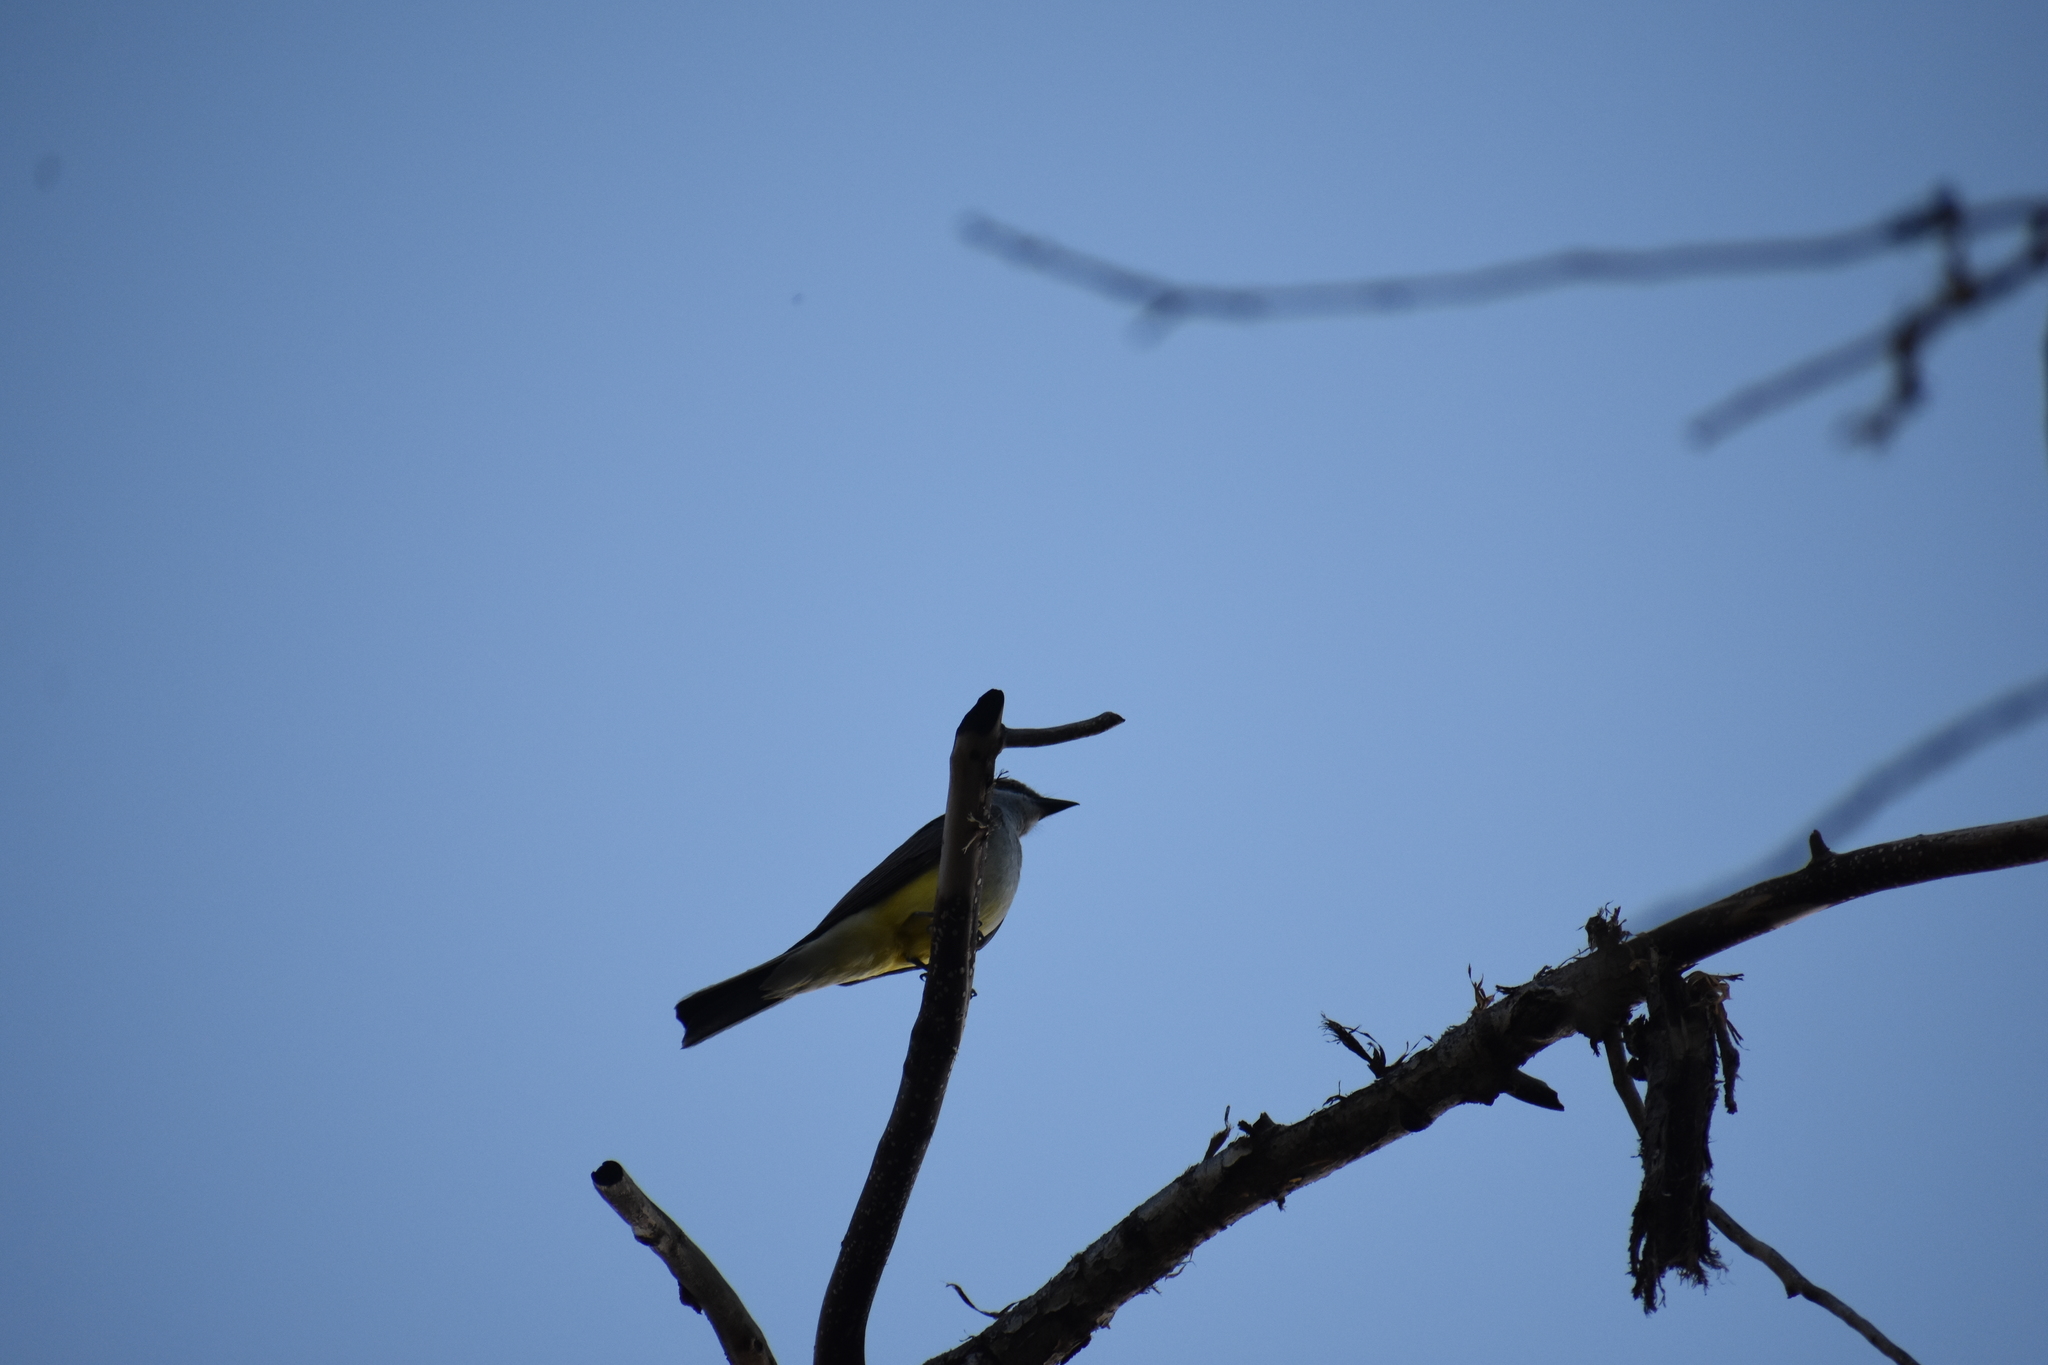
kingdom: Animalia
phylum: Chordata
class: Aves
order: Passeriformes
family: Tyrannidae
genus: Tyrannus
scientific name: Tyrannus verticalis
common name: Western kingbird
